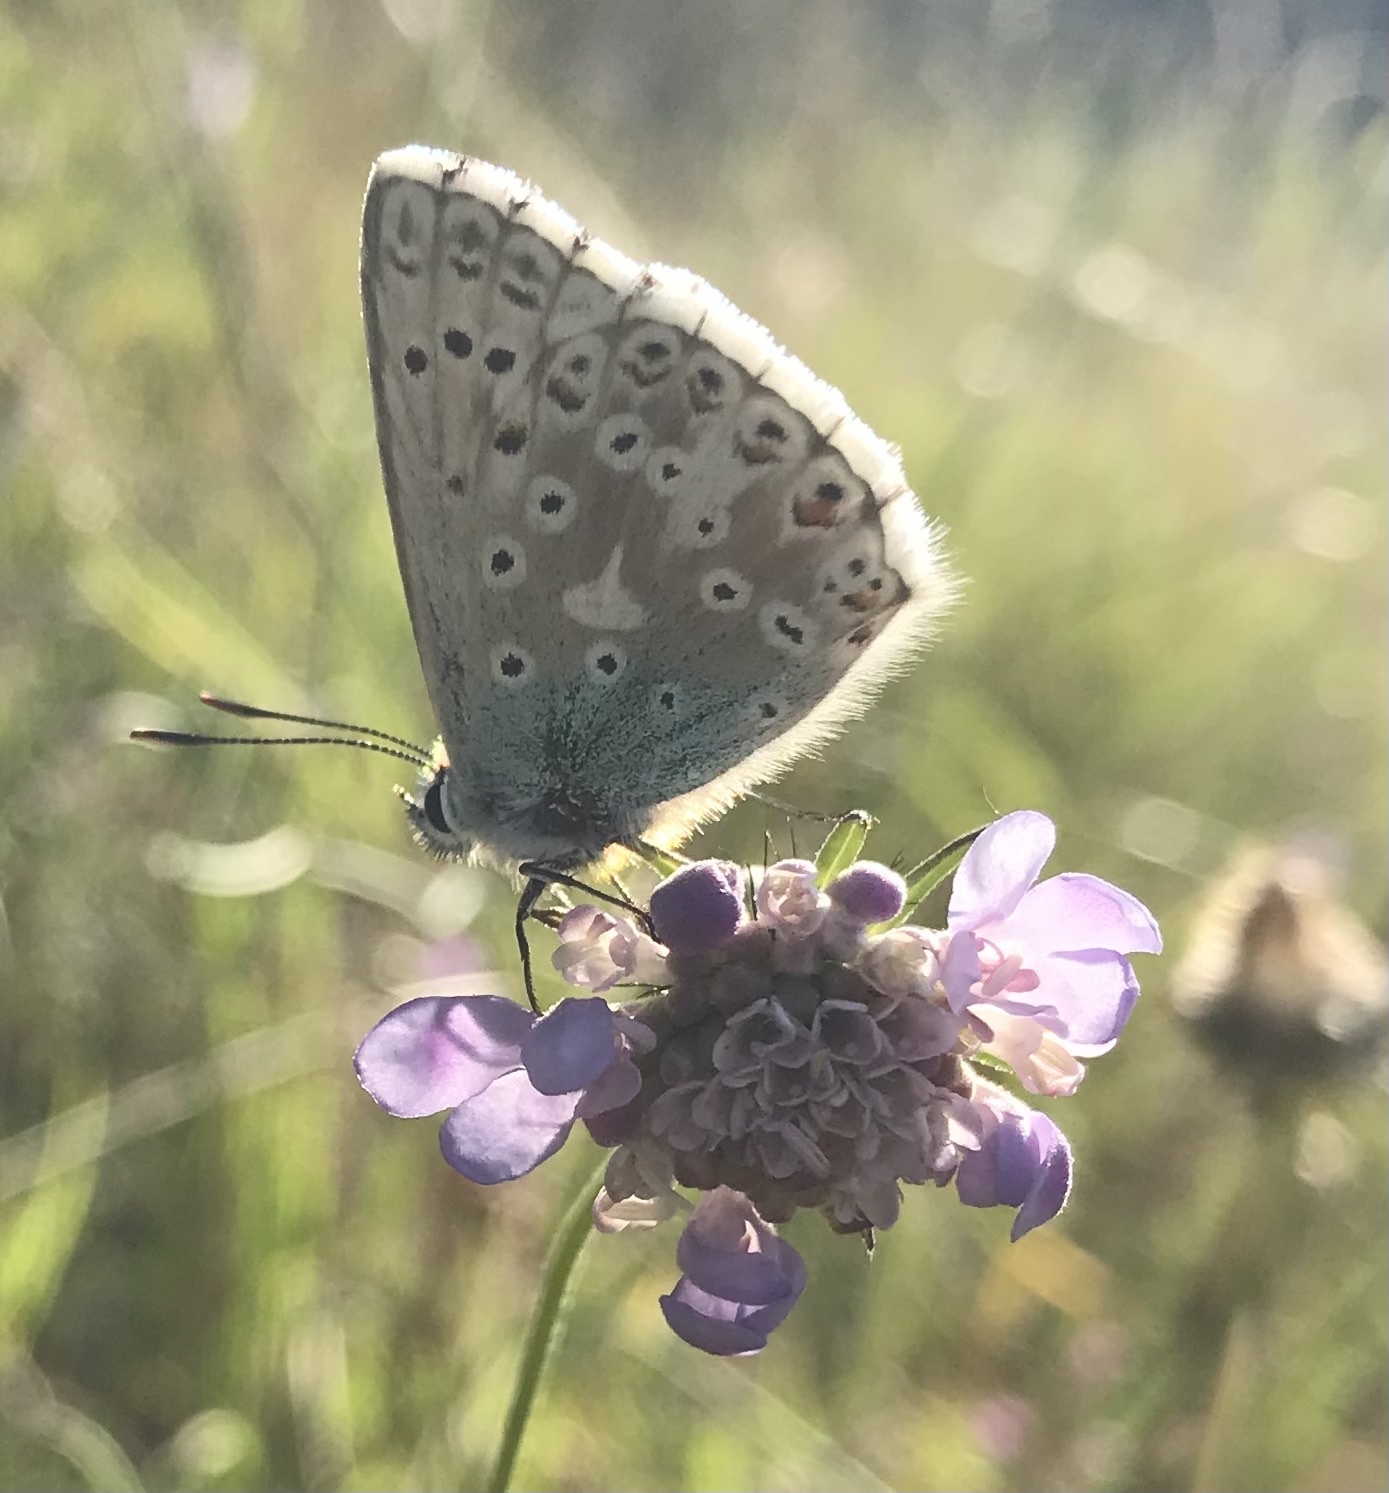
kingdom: Animalia
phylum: Arthropoda
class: Insecta
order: Lepidoptera
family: Lycaenidae
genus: Lysandra
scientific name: Lysandra coridon
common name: Chalkhill blue
